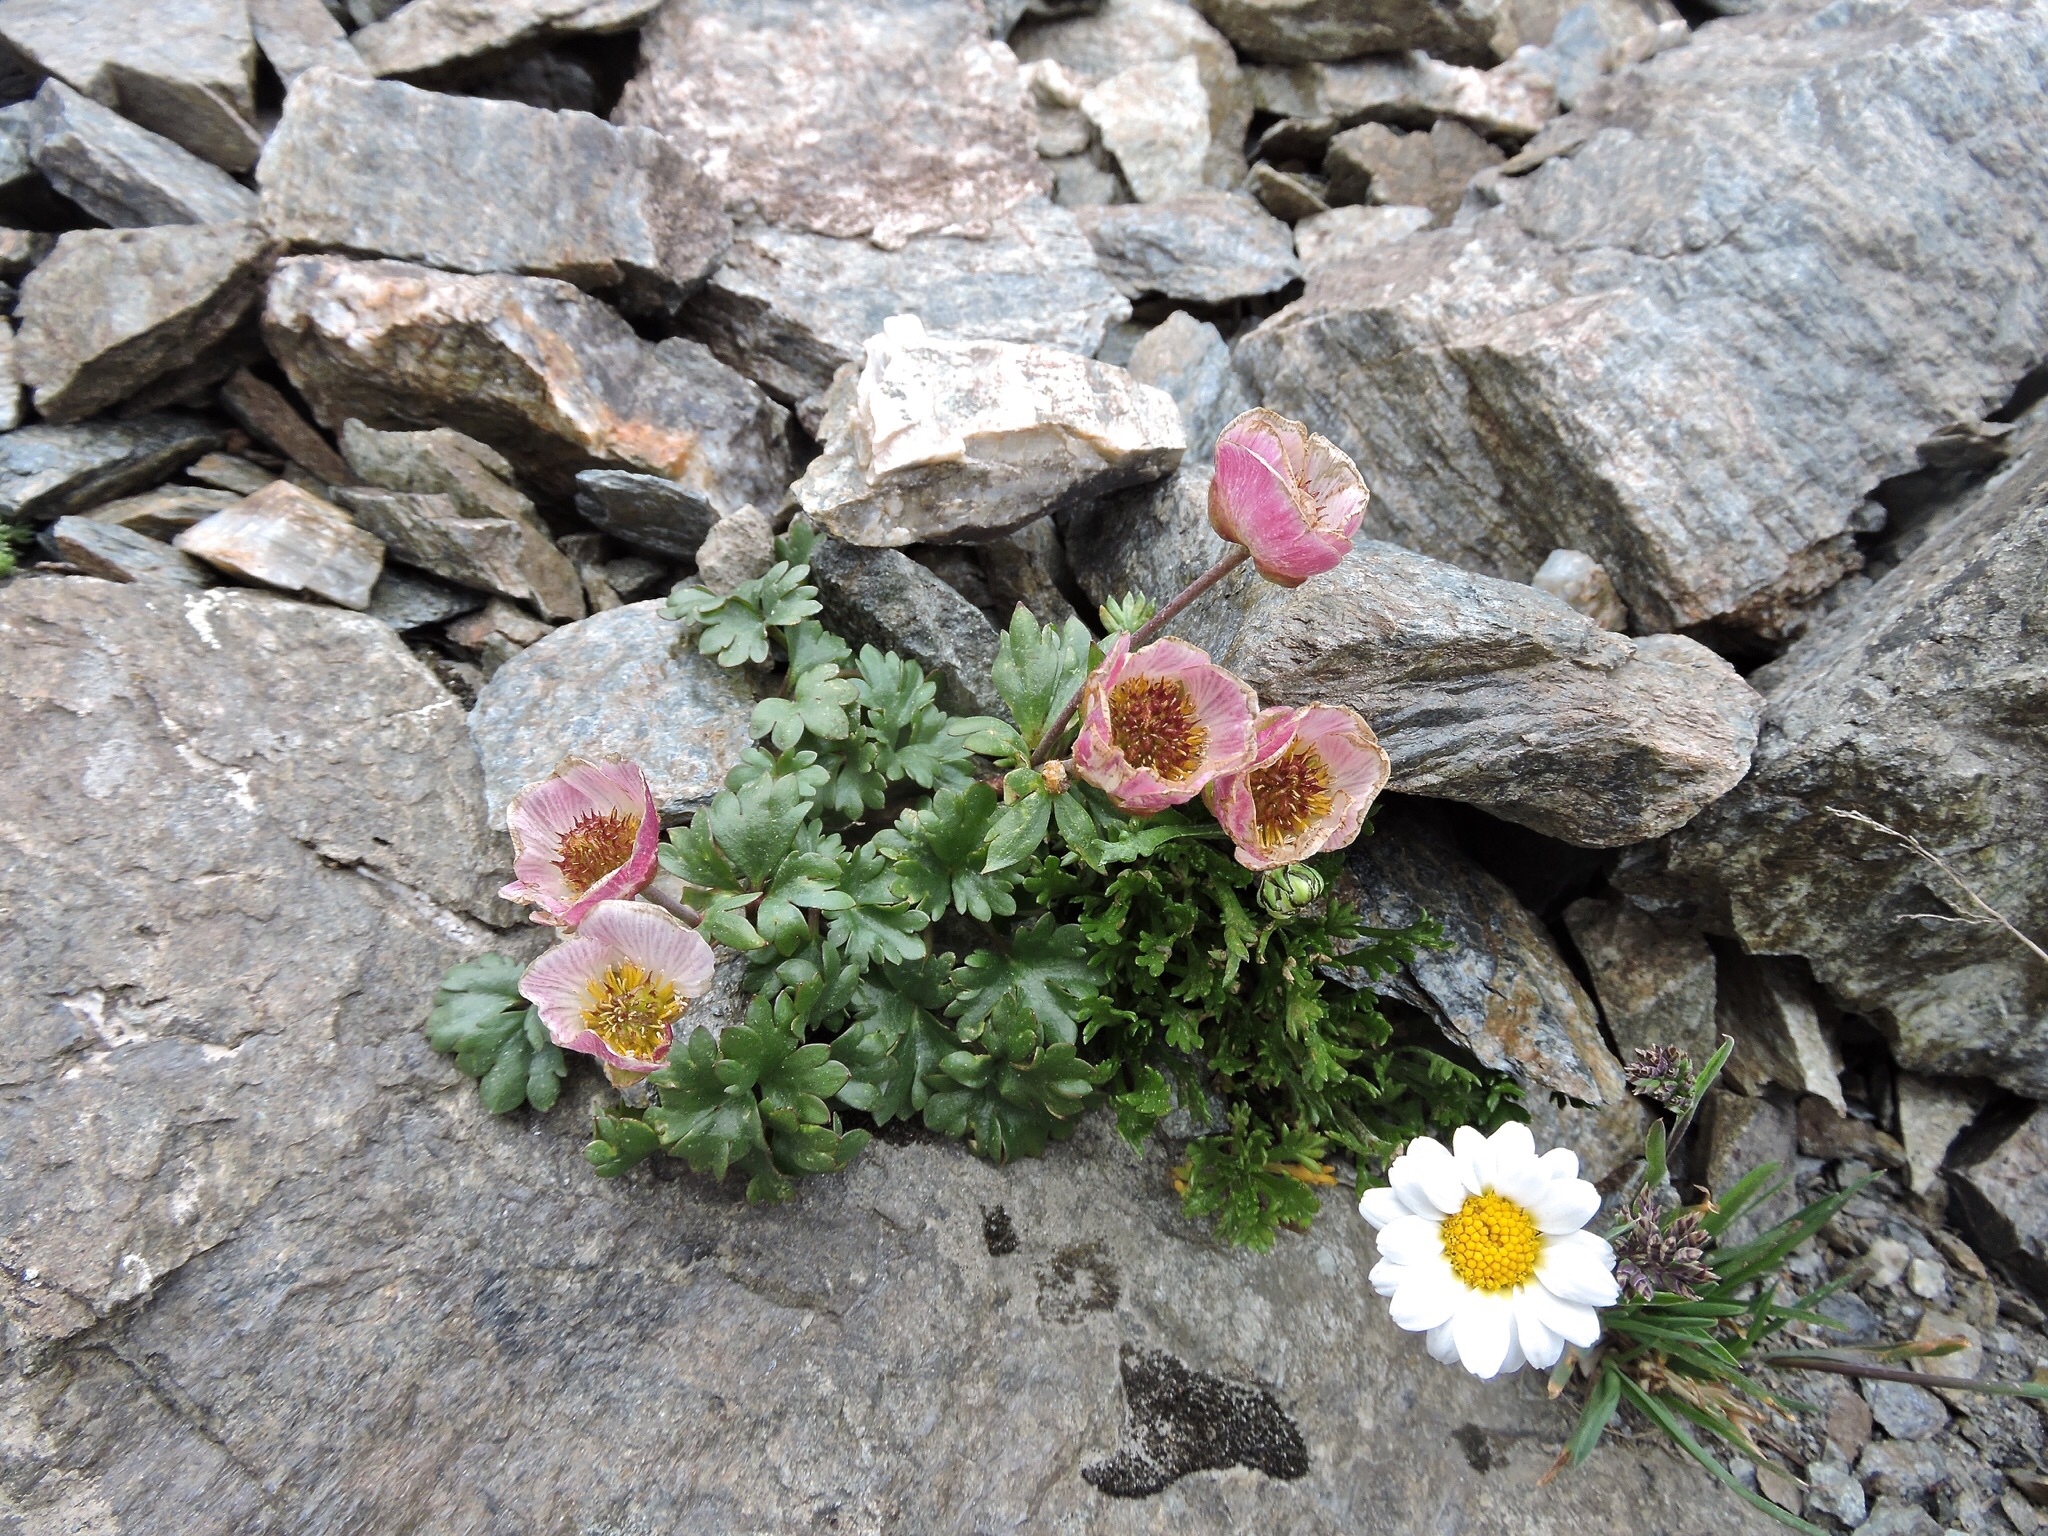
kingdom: Plantae
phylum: Tracheophyta
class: Magnoliopsida
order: Ranunculales
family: Ranunculaceae
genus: Ranunculus
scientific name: Ranunculus glacialis
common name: Glacier buttercup
